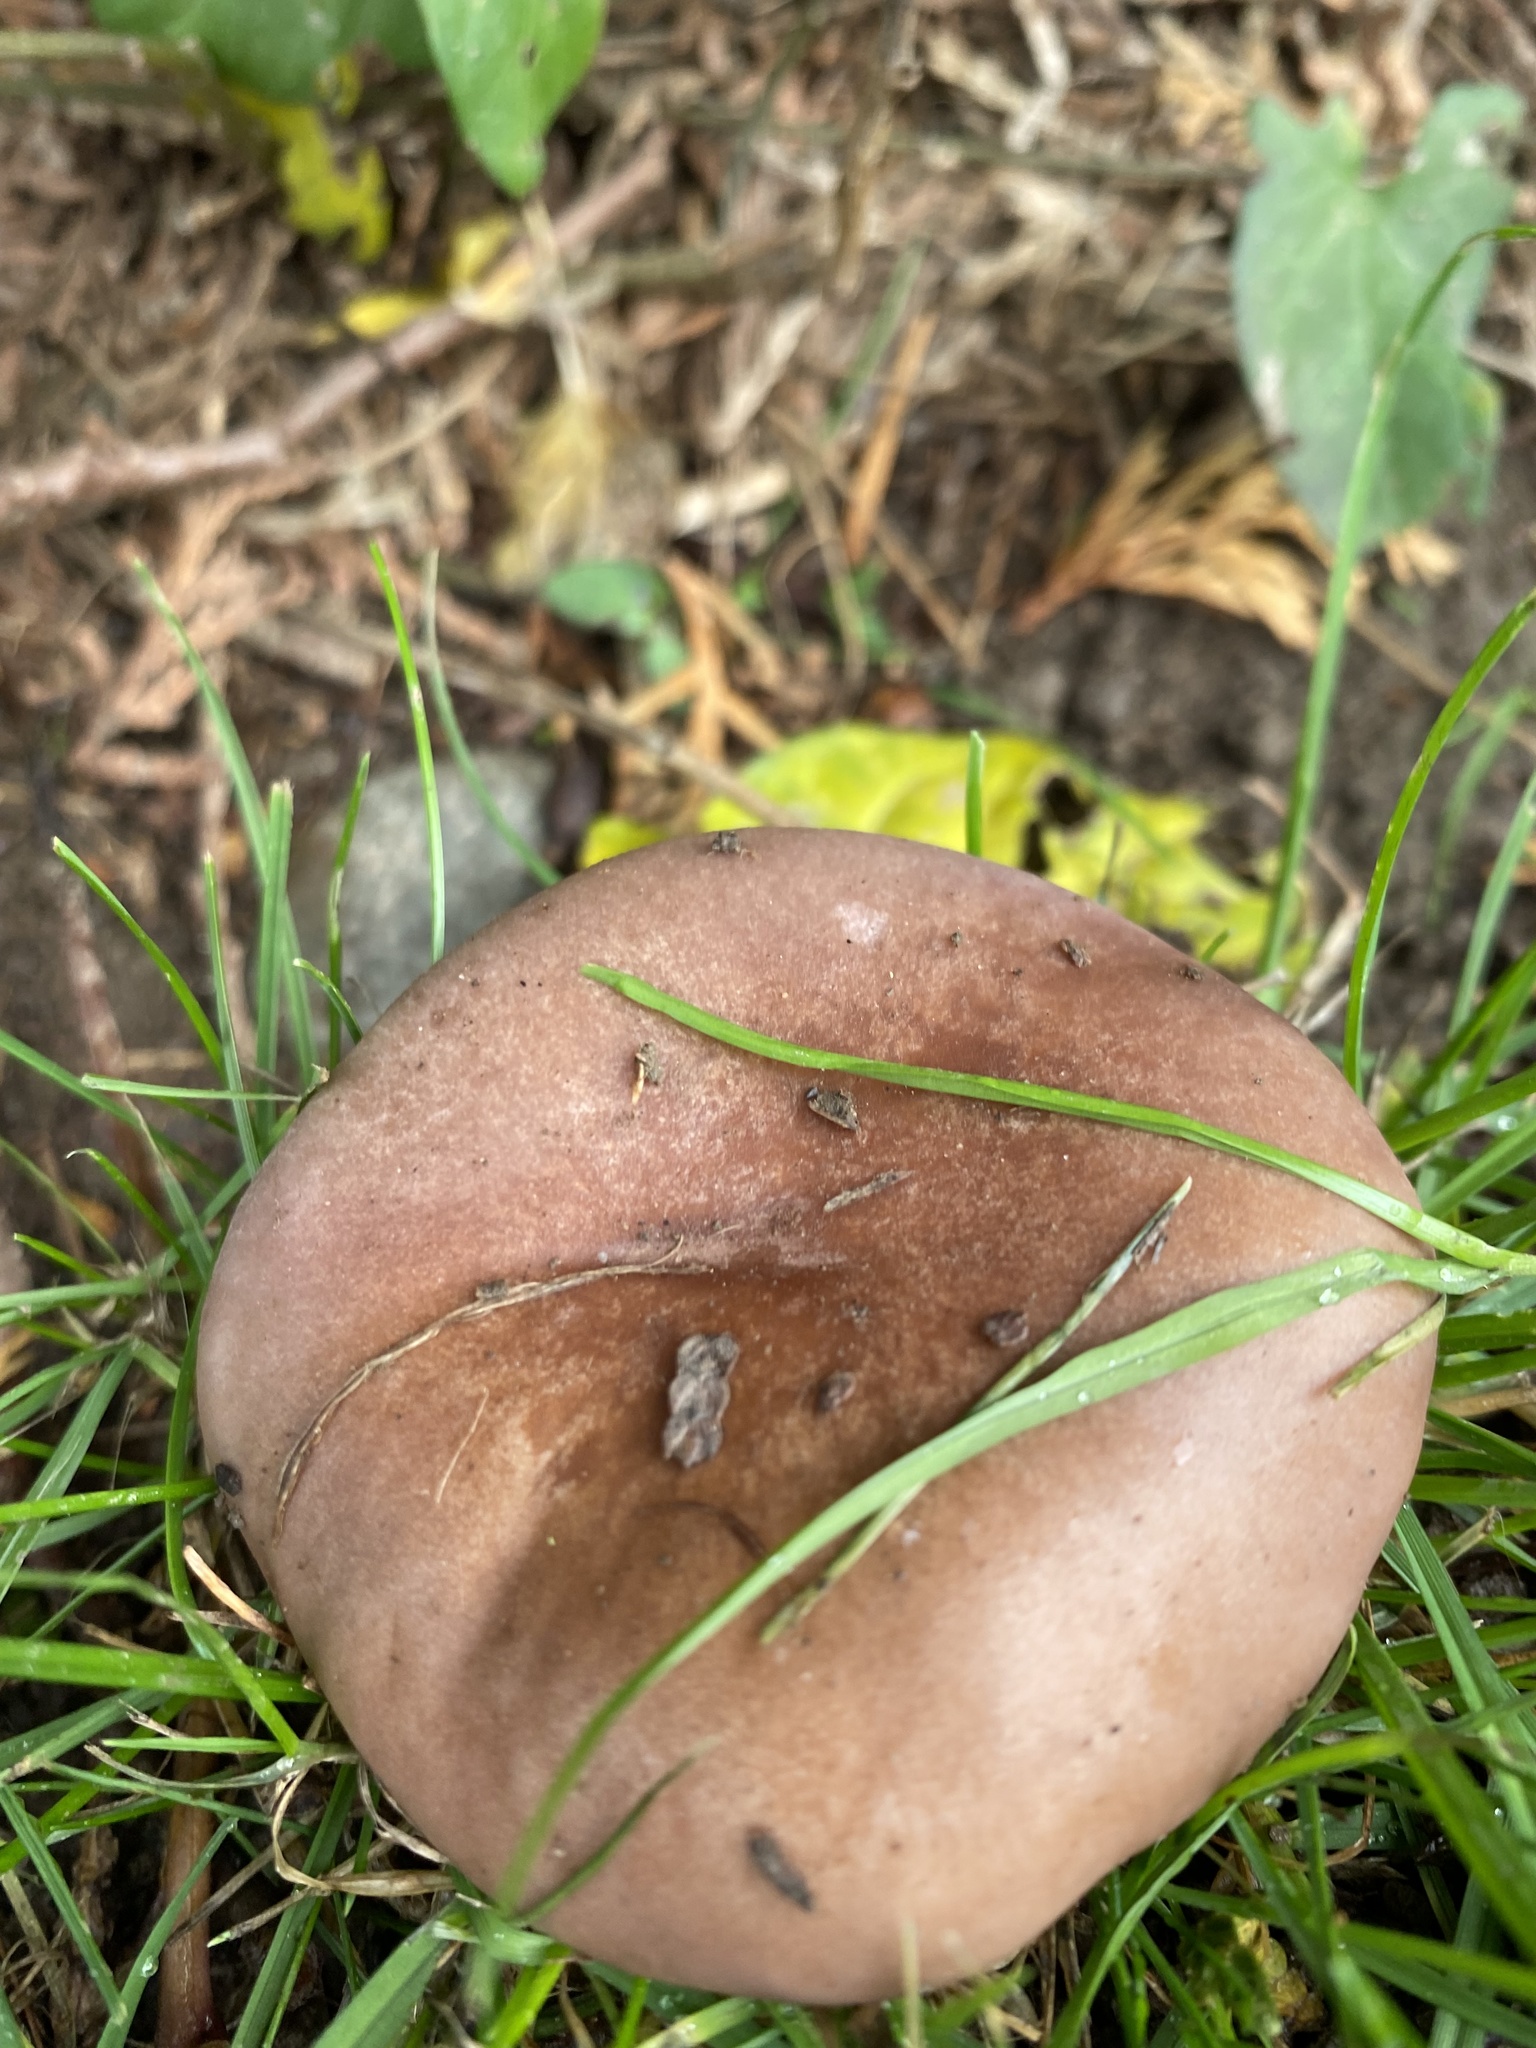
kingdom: Fungi
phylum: Basidiomycota
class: Agaricomycetes
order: Agaricales
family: Tricholomataceae
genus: Collybia
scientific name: Collybia
